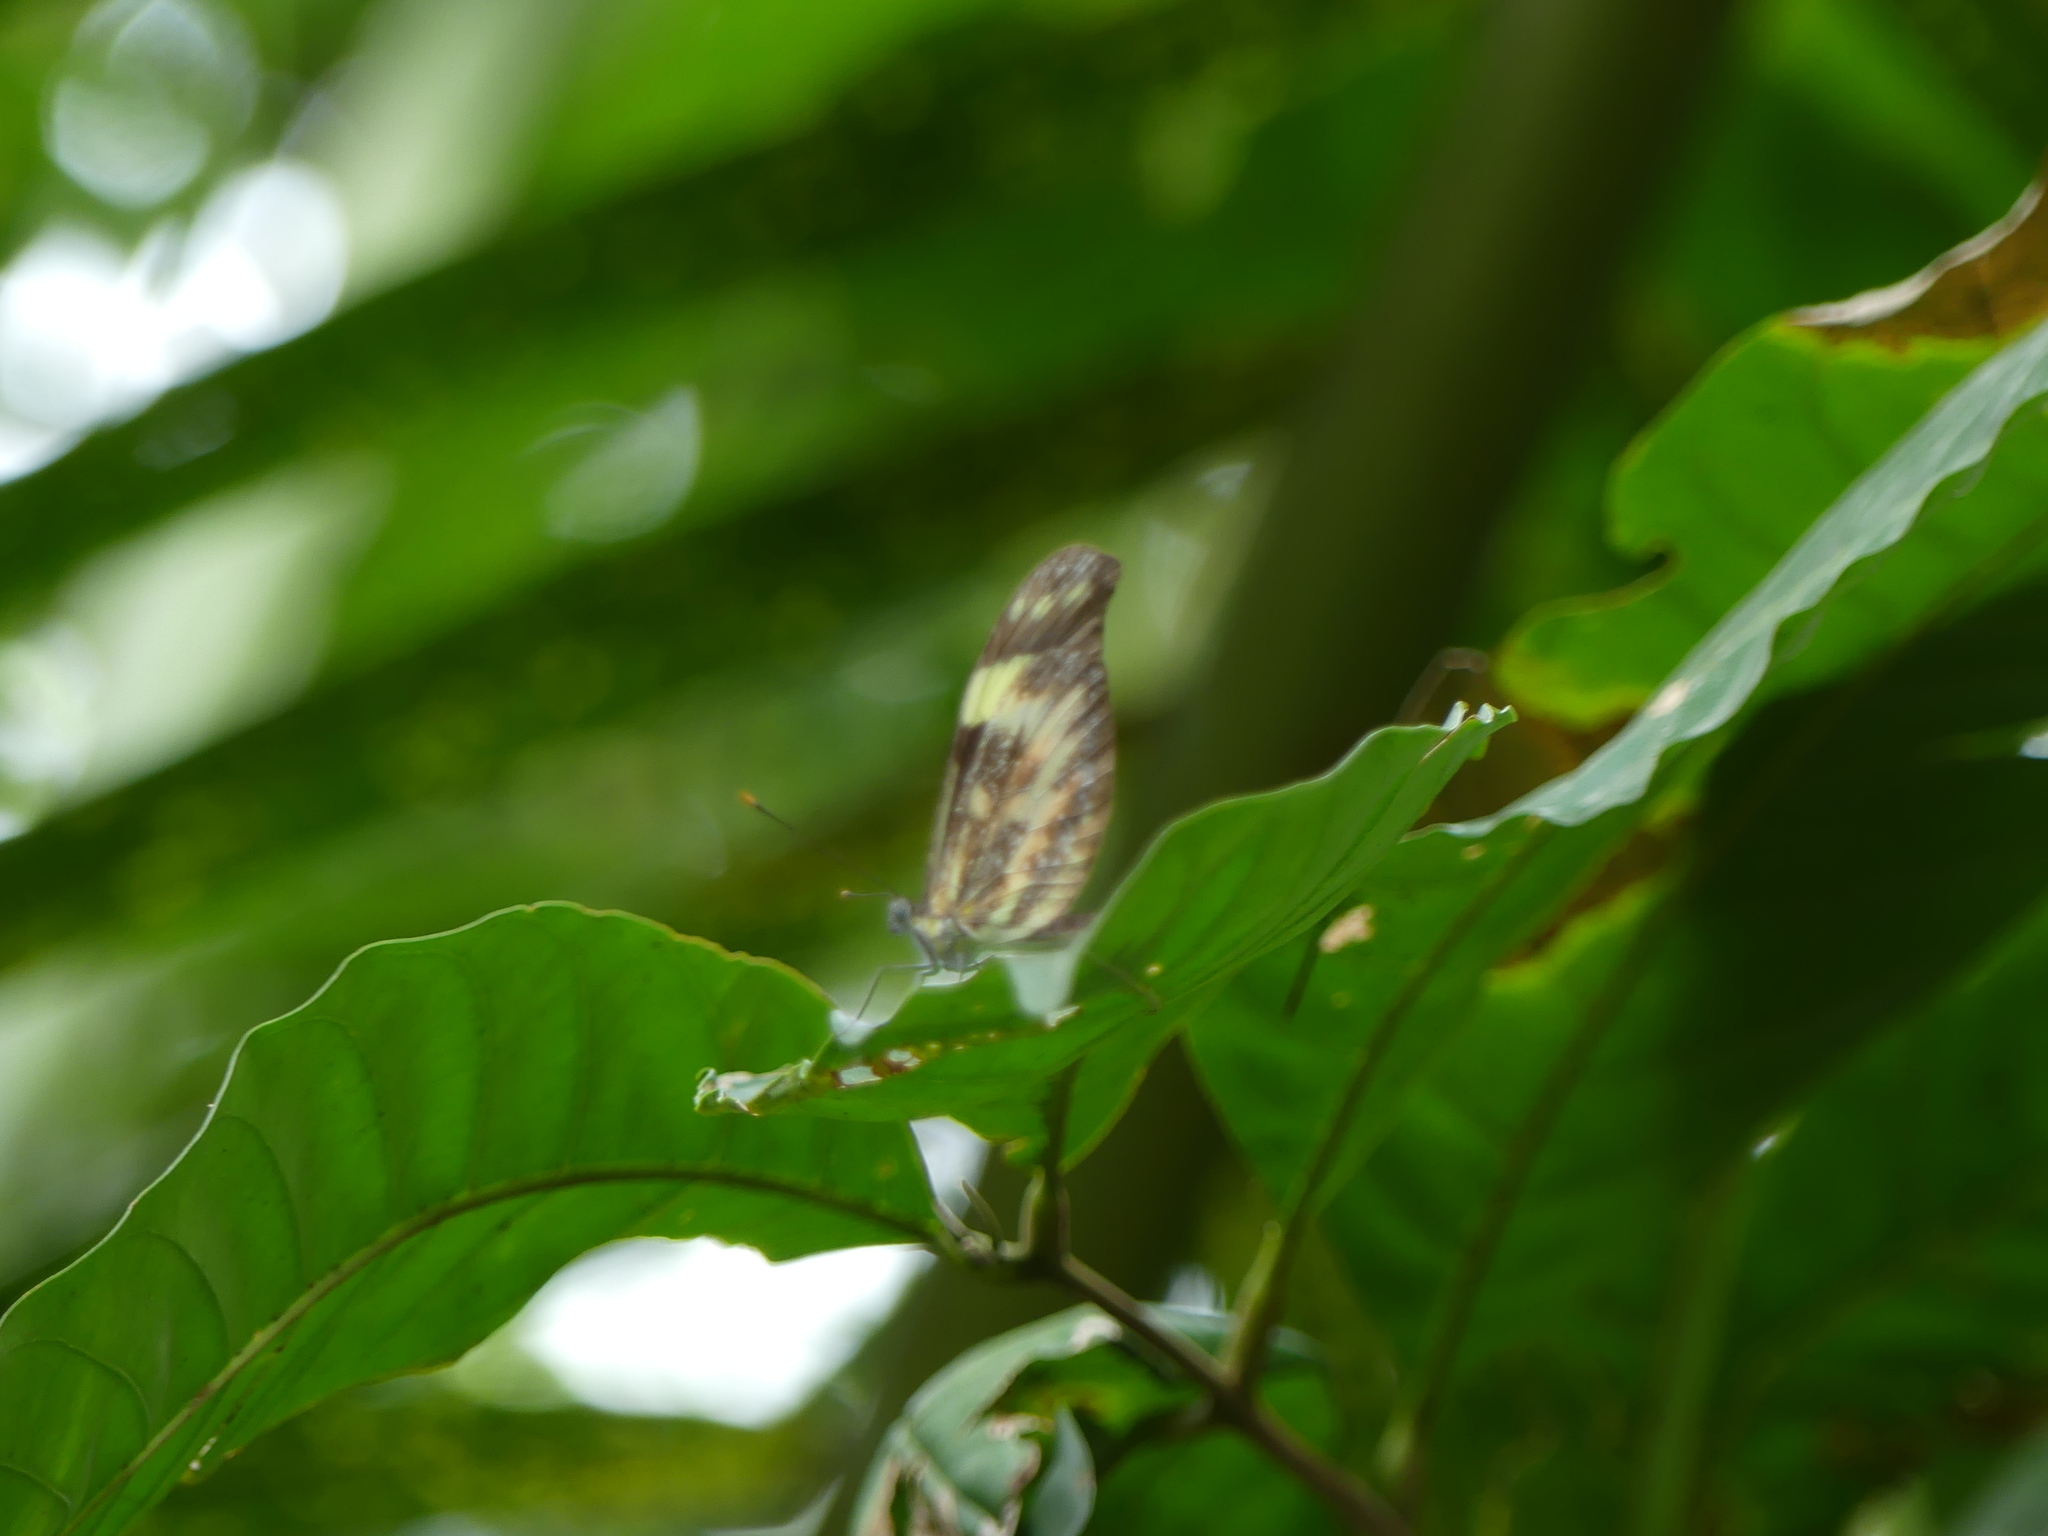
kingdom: Animalia
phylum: Arthropoda
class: Insecta
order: Lepidoptera
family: Pieridae
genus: Dismorphia
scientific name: Dismorphia cubana
